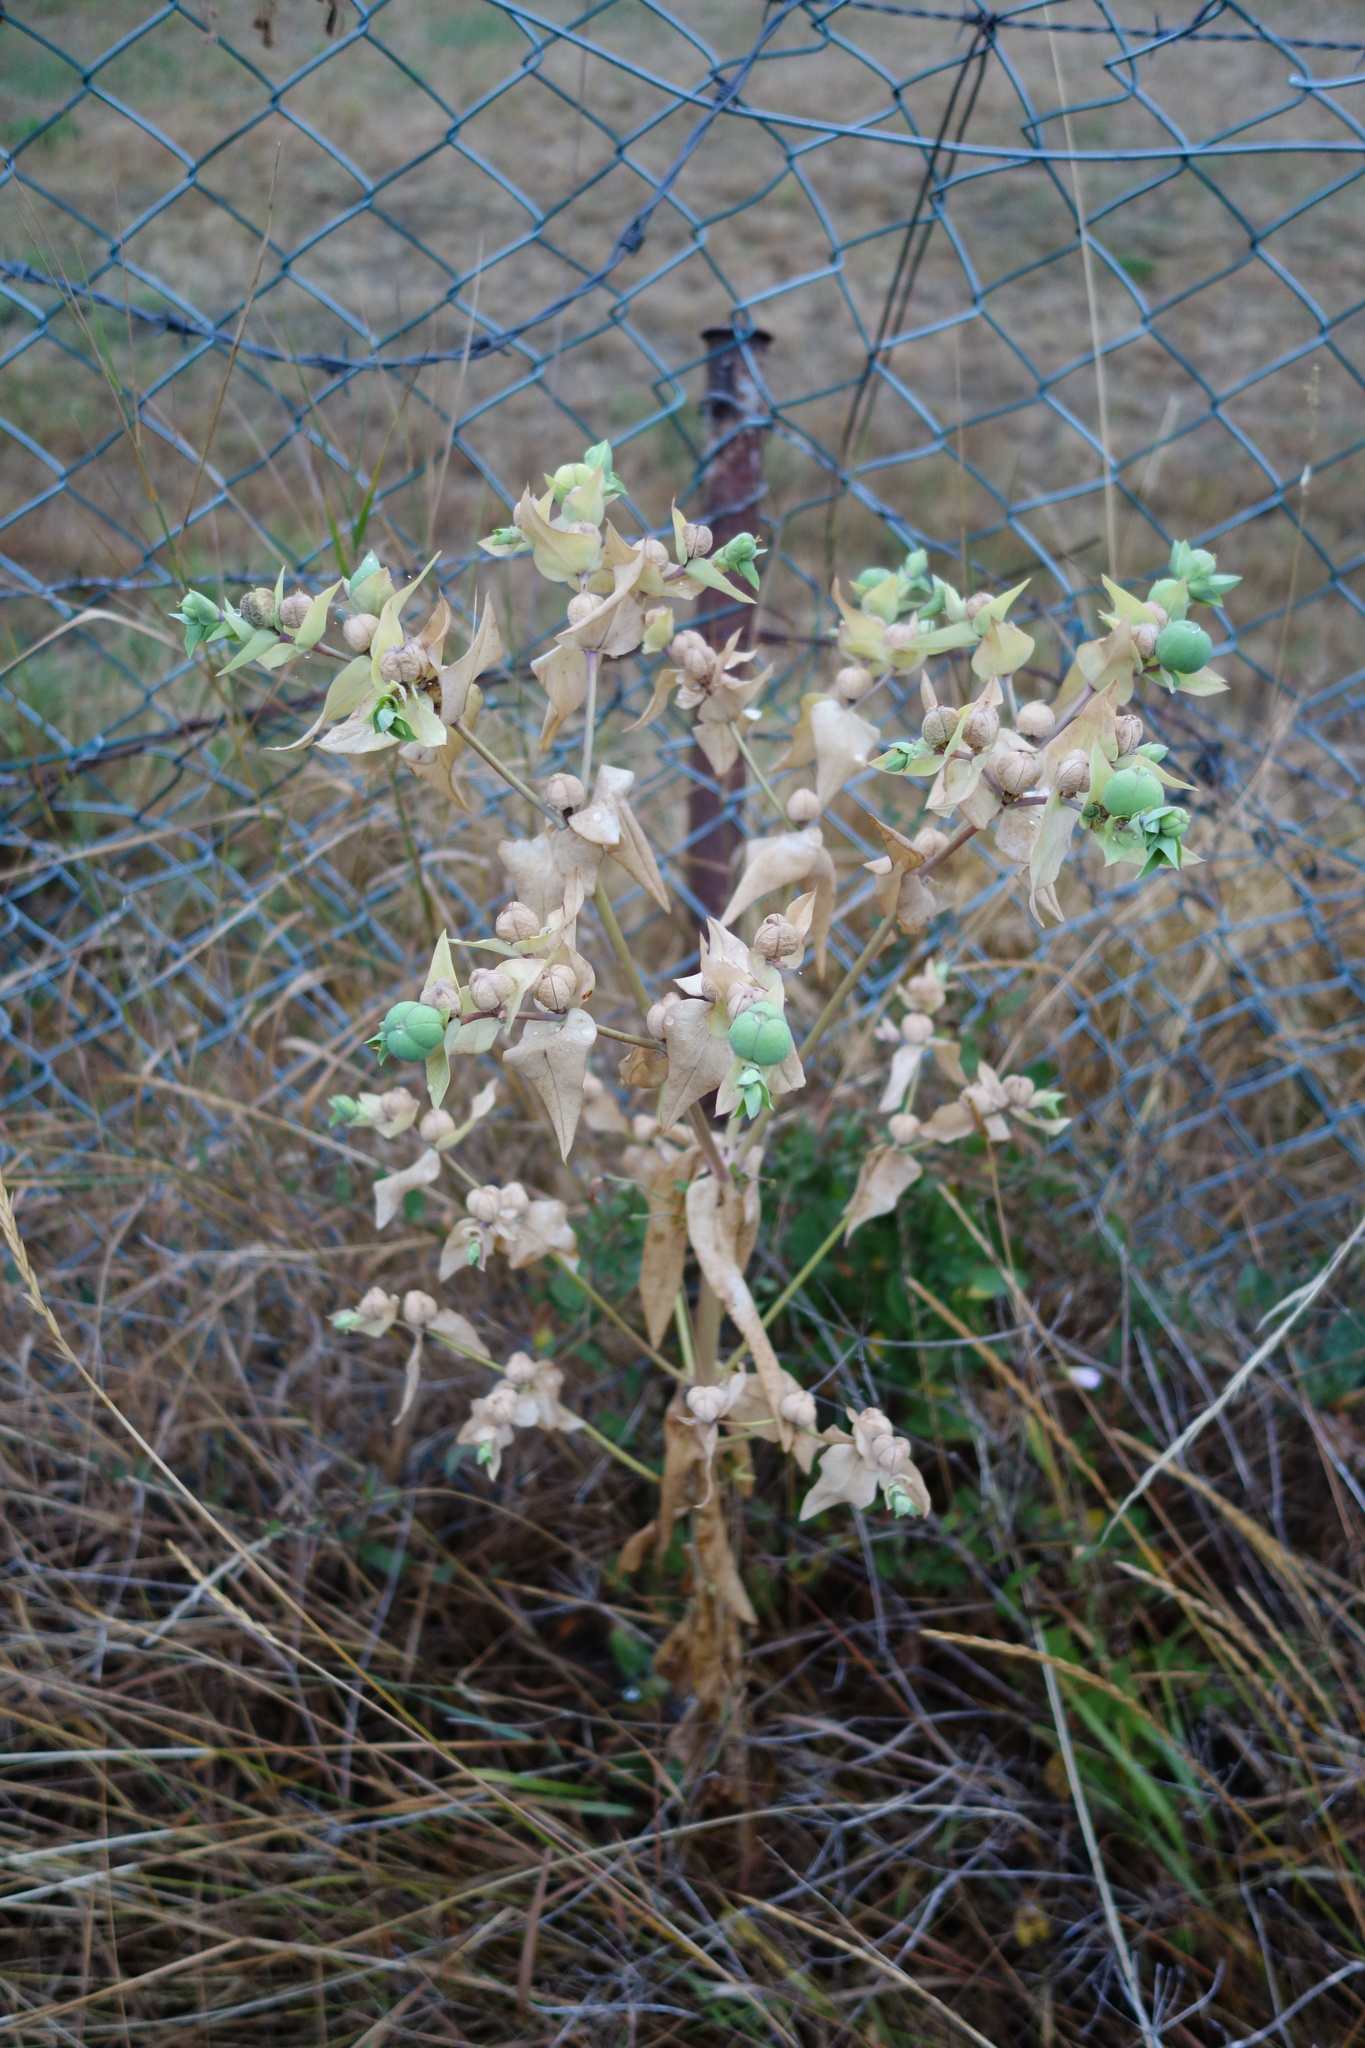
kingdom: Plantae
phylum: Tracheophyta
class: Magnoliopsida
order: Malpighiales
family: Euphorbiaceae
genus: Euphorbia
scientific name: Euphorbia lathyris
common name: Caper spurge
